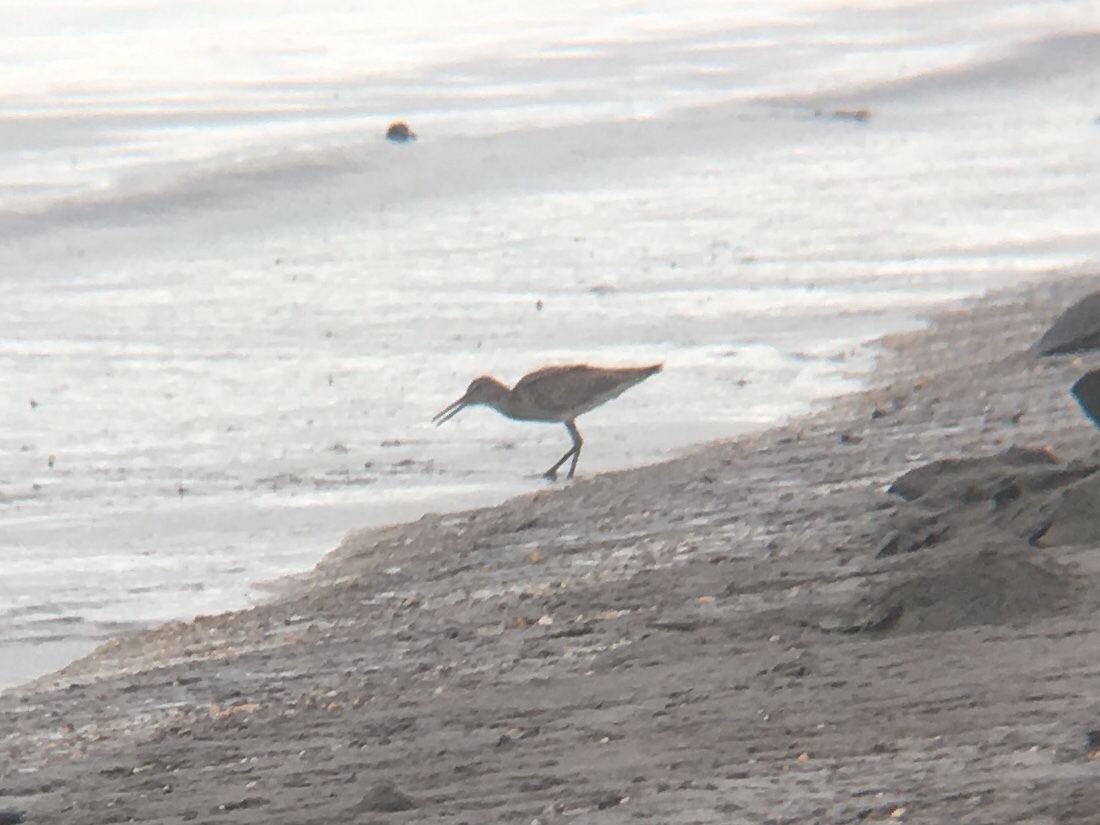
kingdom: Animalia
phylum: Chordata
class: Aves
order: Charadriiformes
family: Scolopacidae
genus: Tringa
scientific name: Tringa semipalmata
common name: Willet
